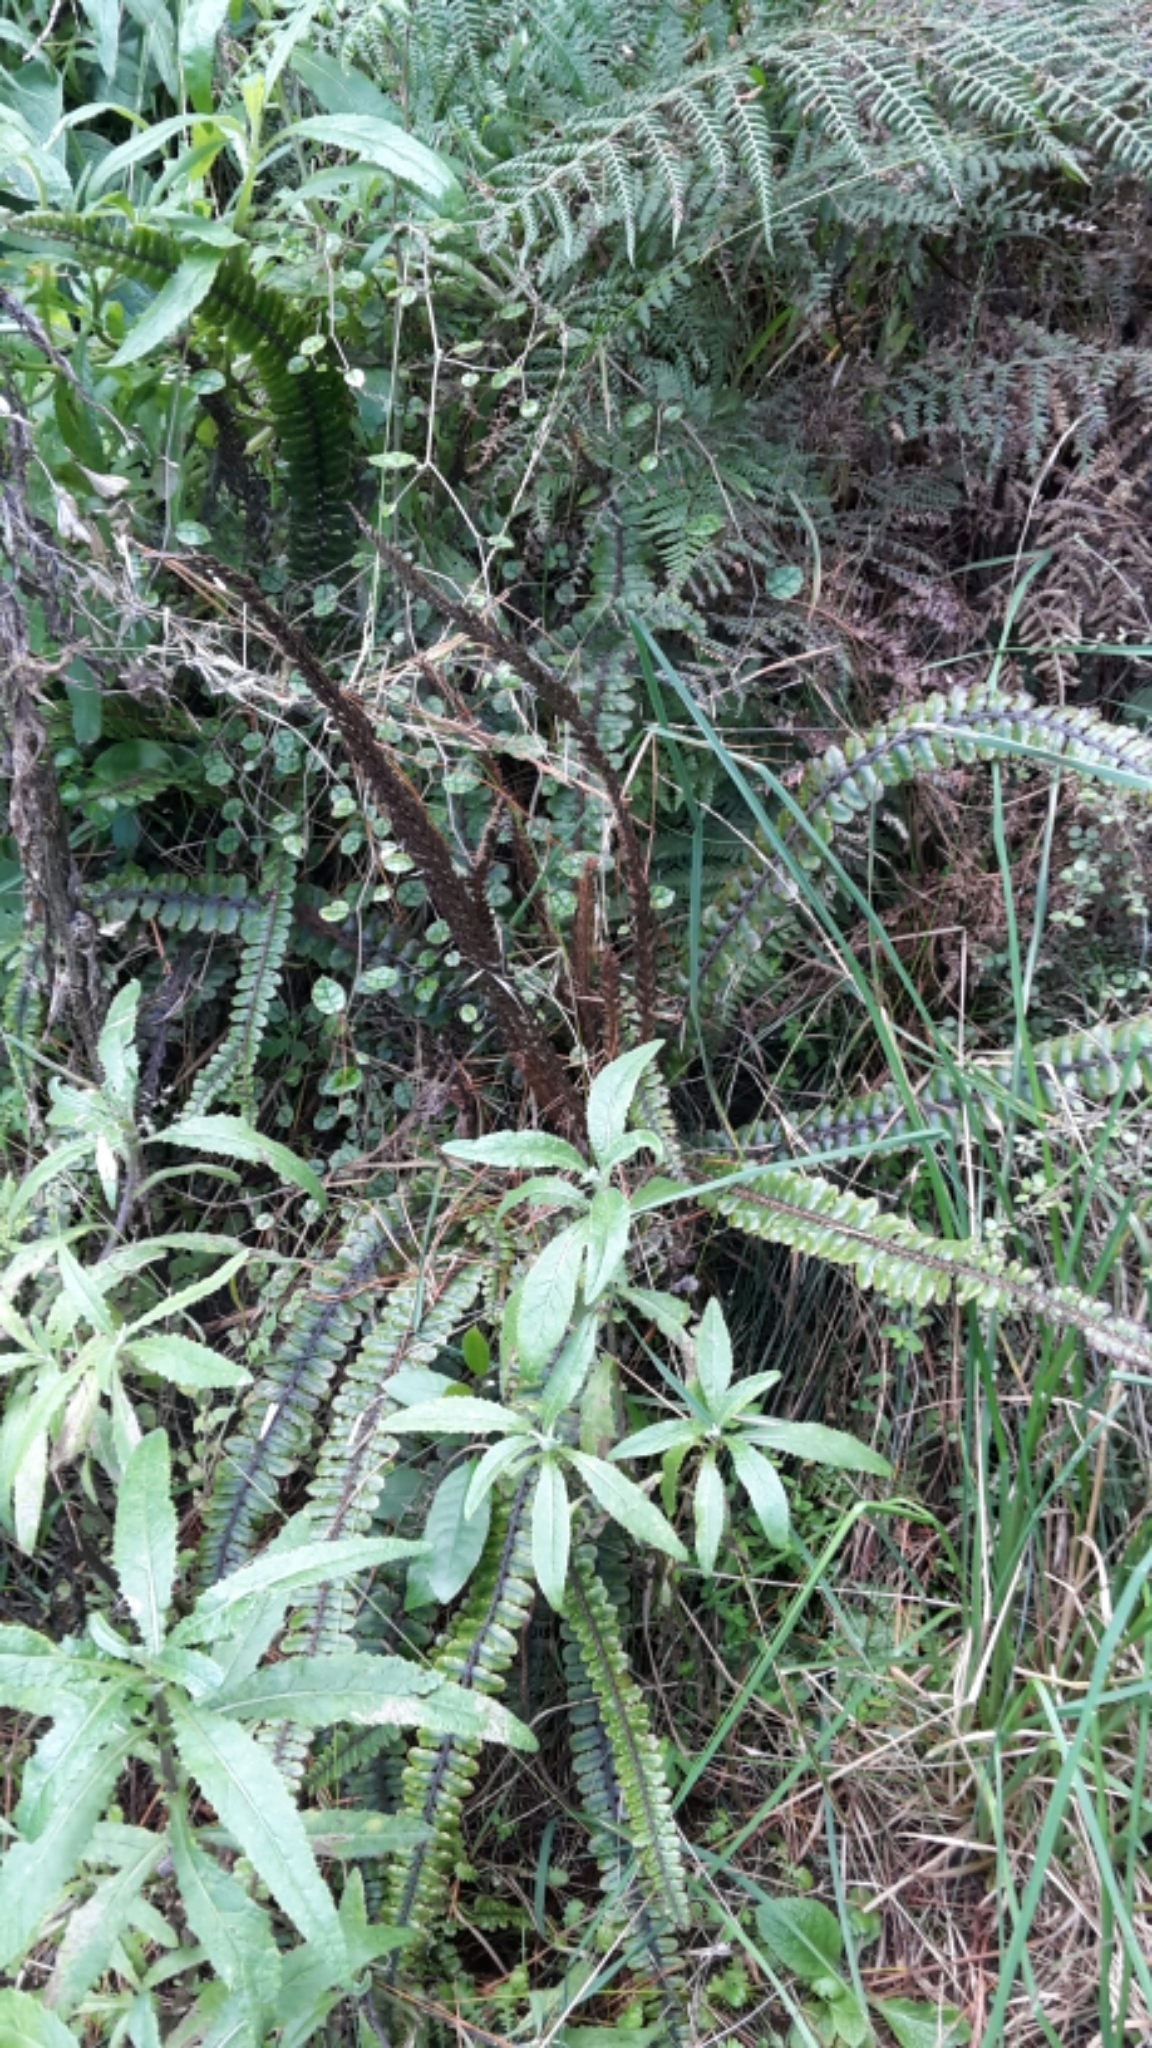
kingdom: Plantae
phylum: Tracheophyta
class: Polypodiopsida
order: Polypodiales
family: Blechnaceae
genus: Cranfillia
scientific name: Cranfillia fluviatilis
